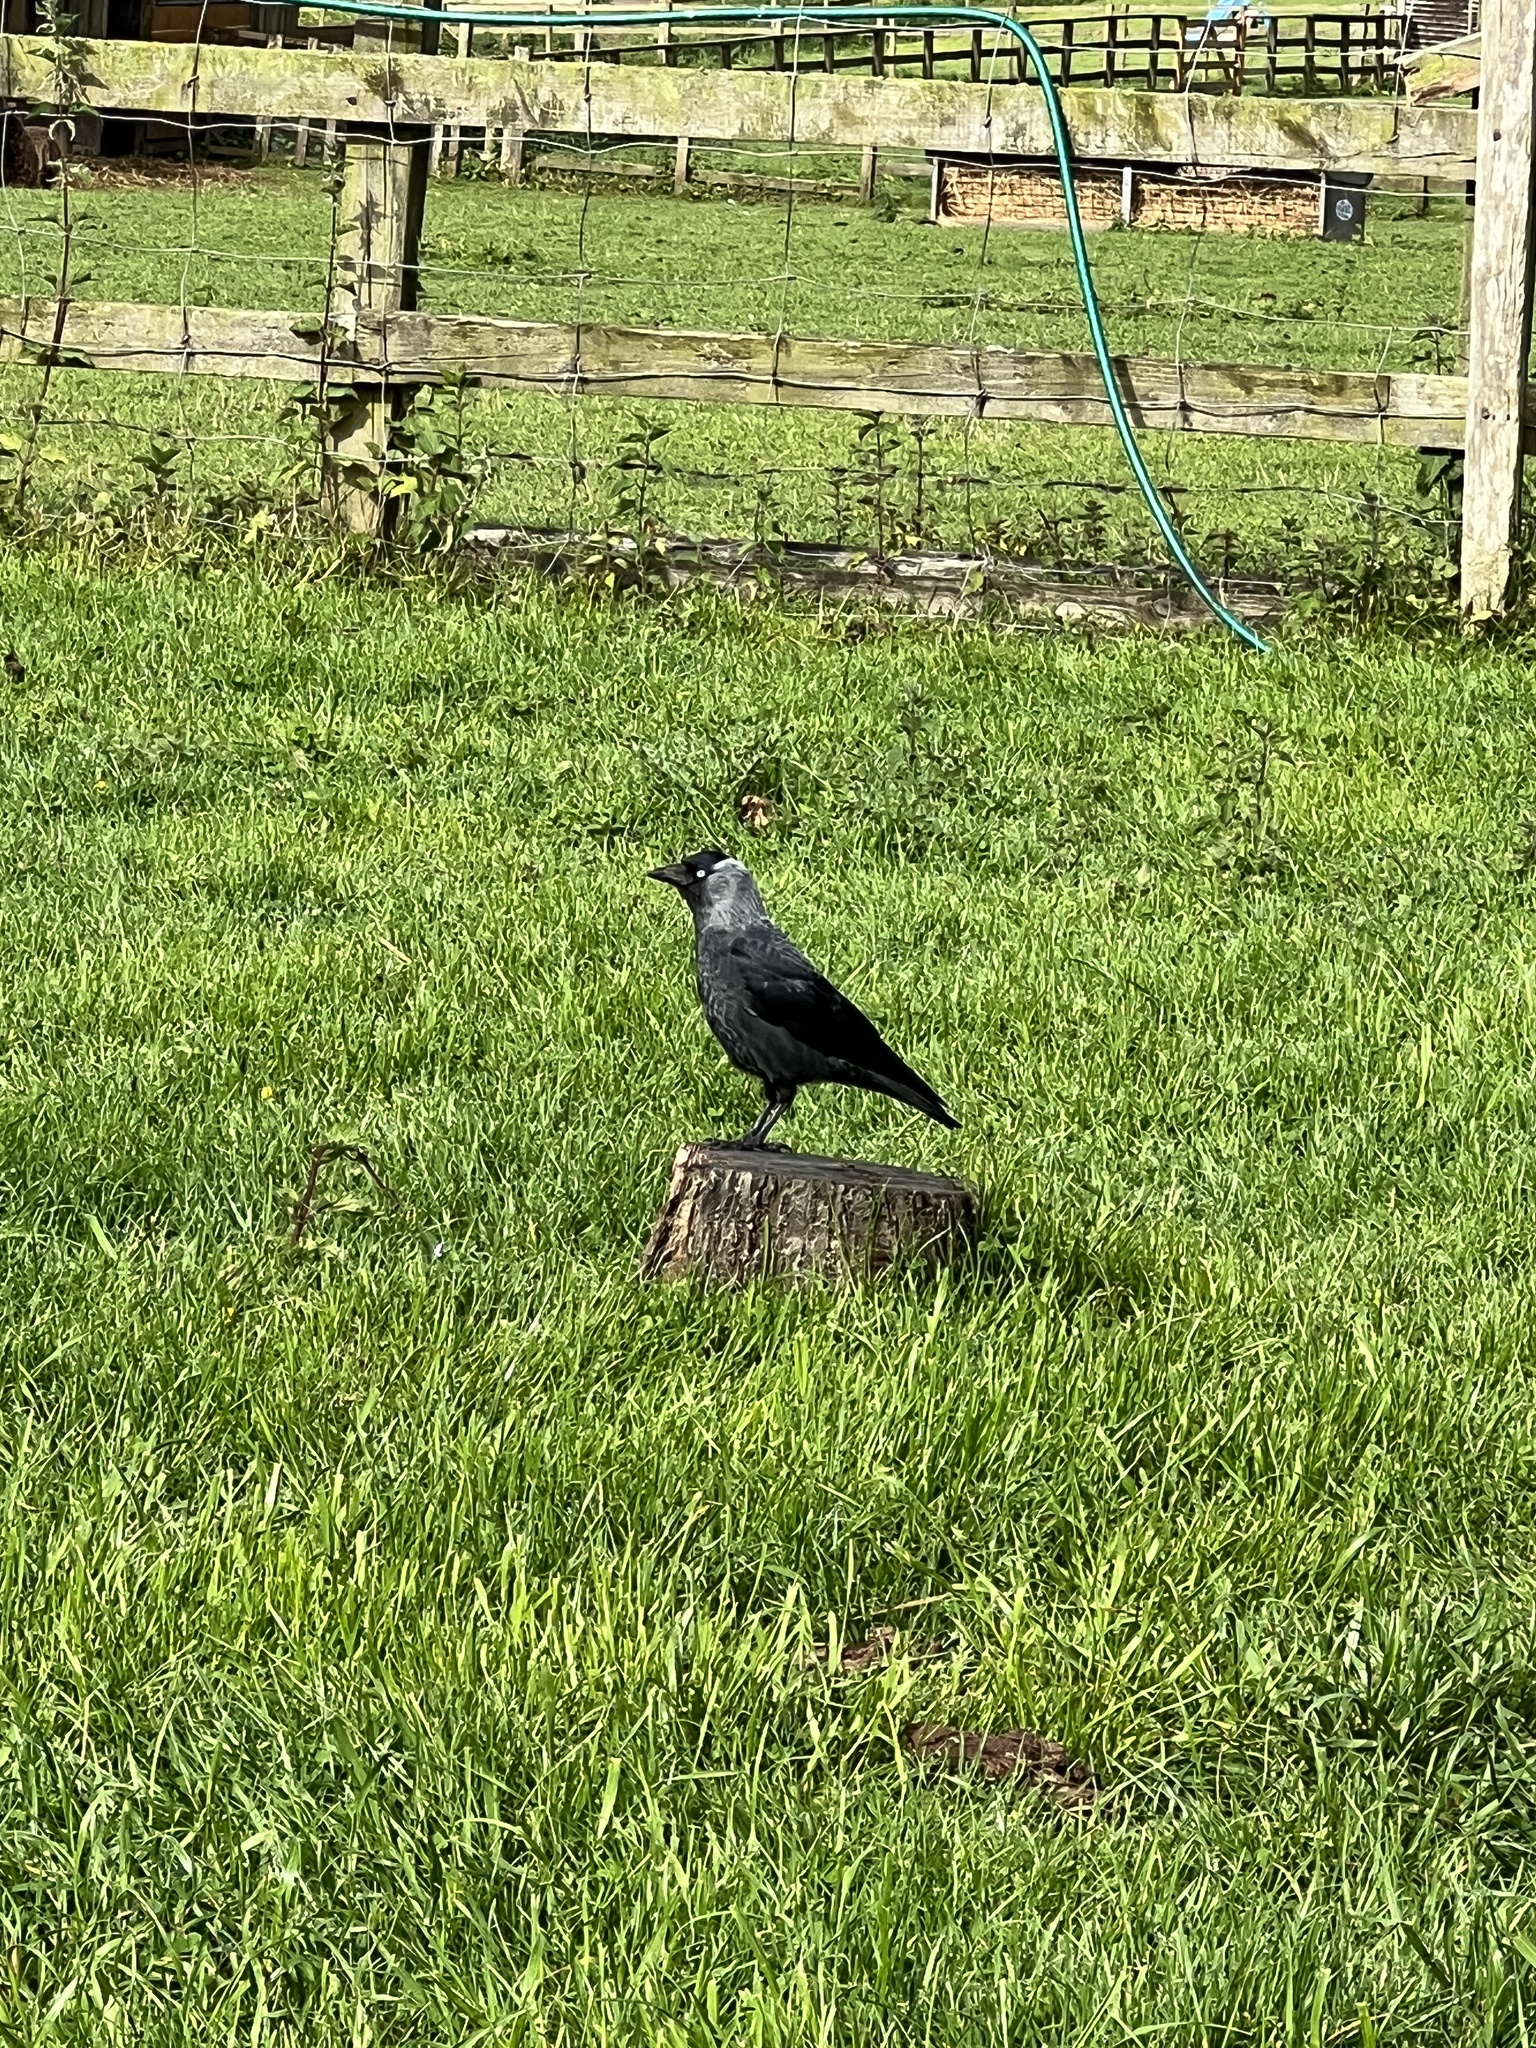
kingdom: Animalia
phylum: Chordata
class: Aves
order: Passeriformes
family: Corvidae
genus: Coloeus
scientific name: Coloeus monedula
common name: Western jackdaw
